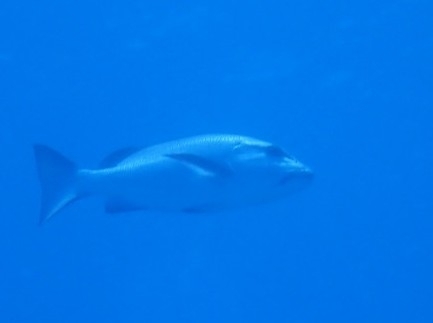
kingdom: Animalia
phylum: Chordata
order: Perciformes
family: Lutjanidae
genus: Lutjanus
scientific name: Lutjanus bohar
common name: Red bass
